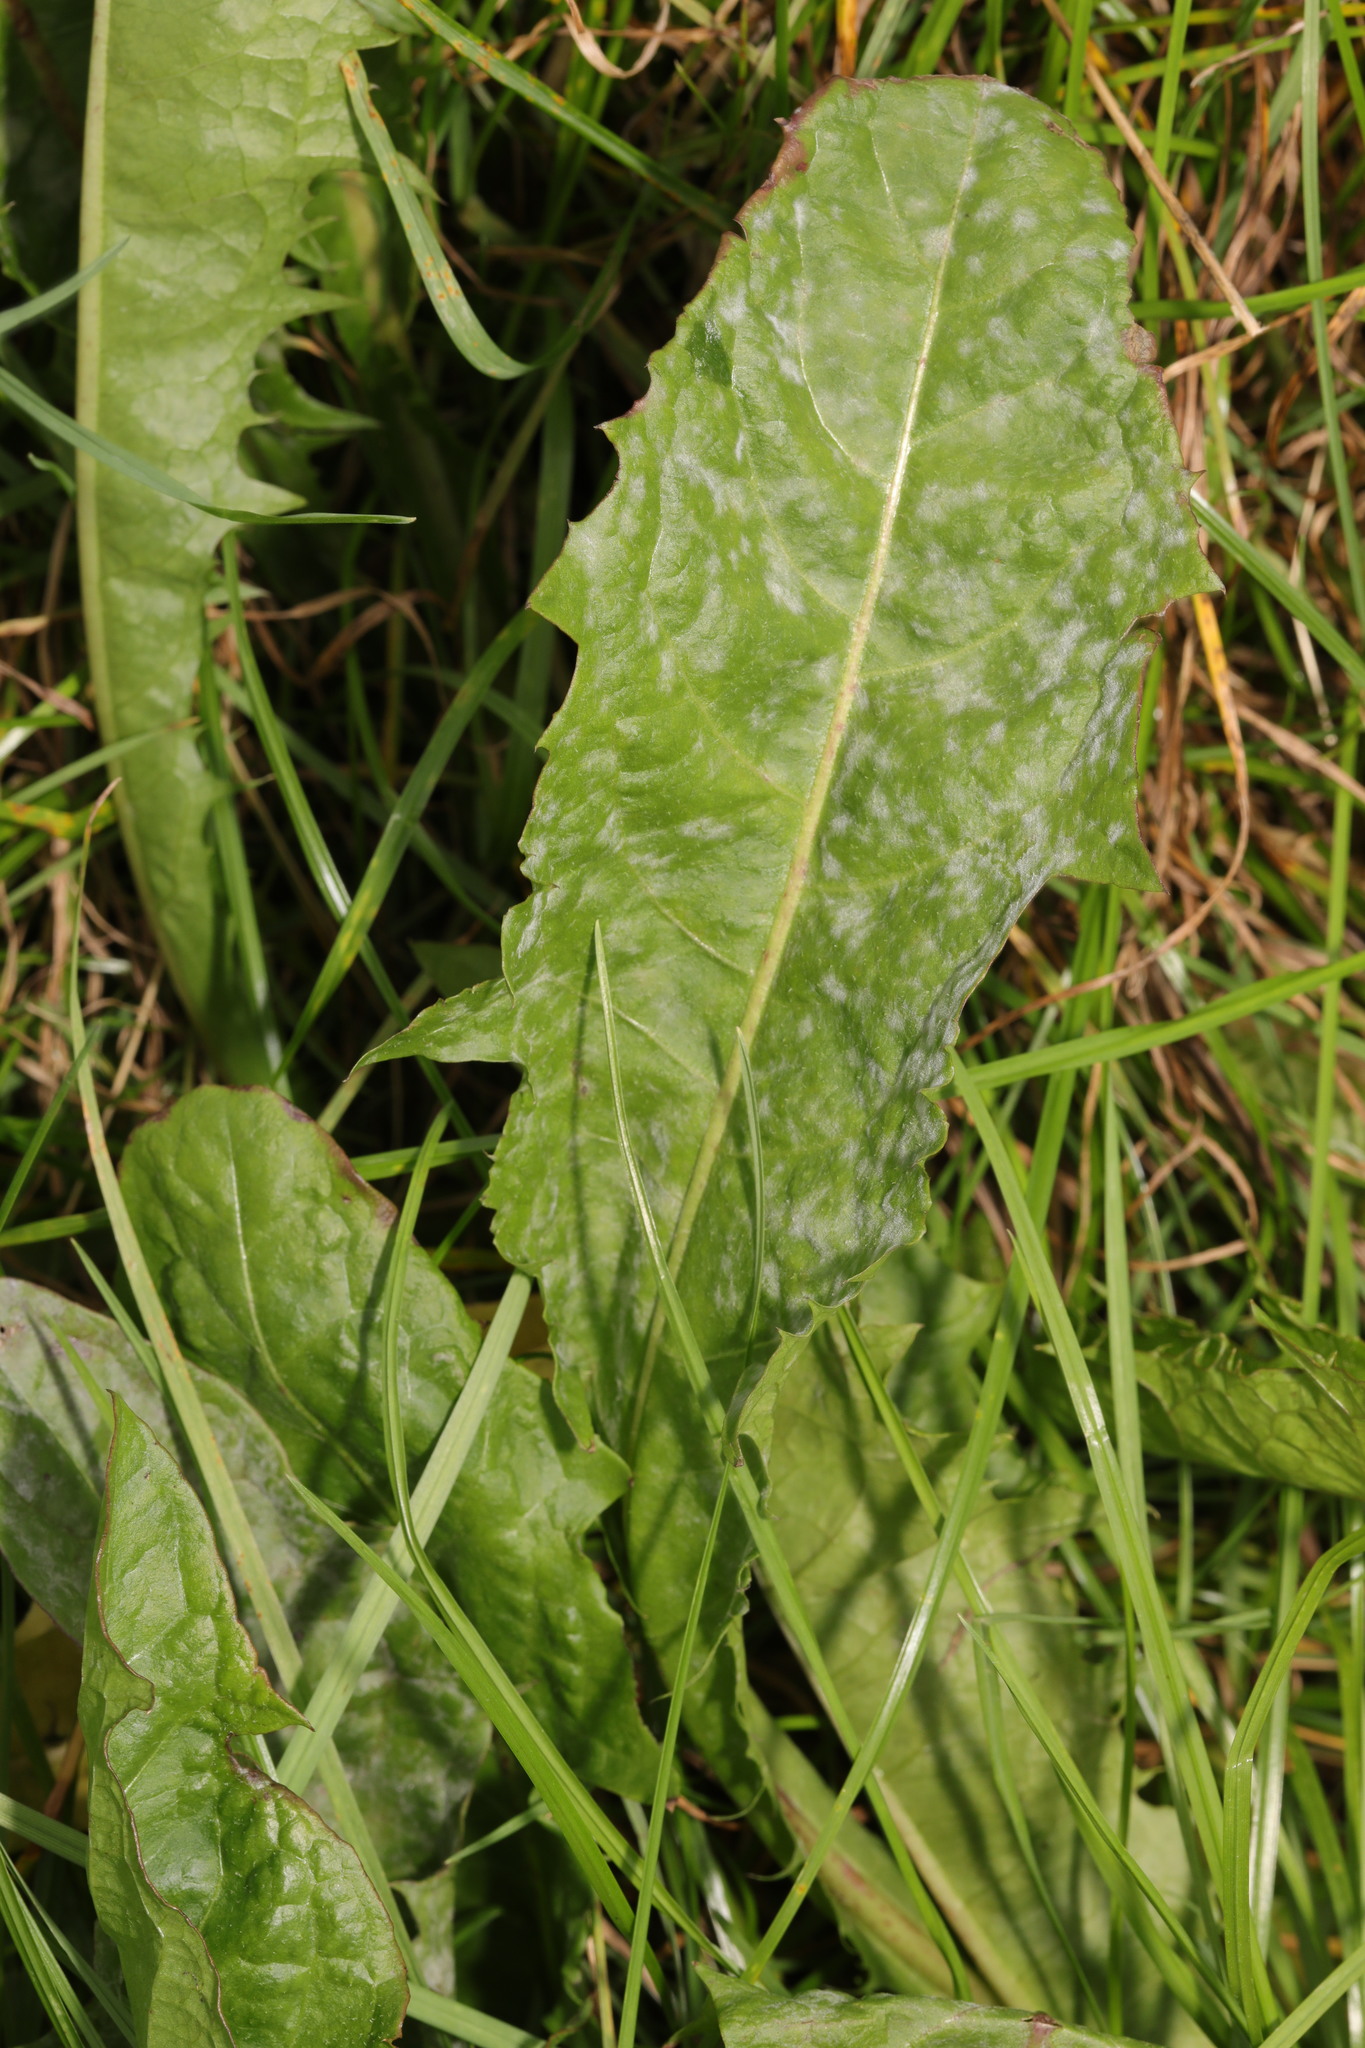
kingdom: Plantae
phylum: Tracheophyta
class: Magnoliopsida
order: Asterales
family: Asteraceae
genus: Taraxacum
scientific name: Taraxacum officinale
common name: Common dandelion
